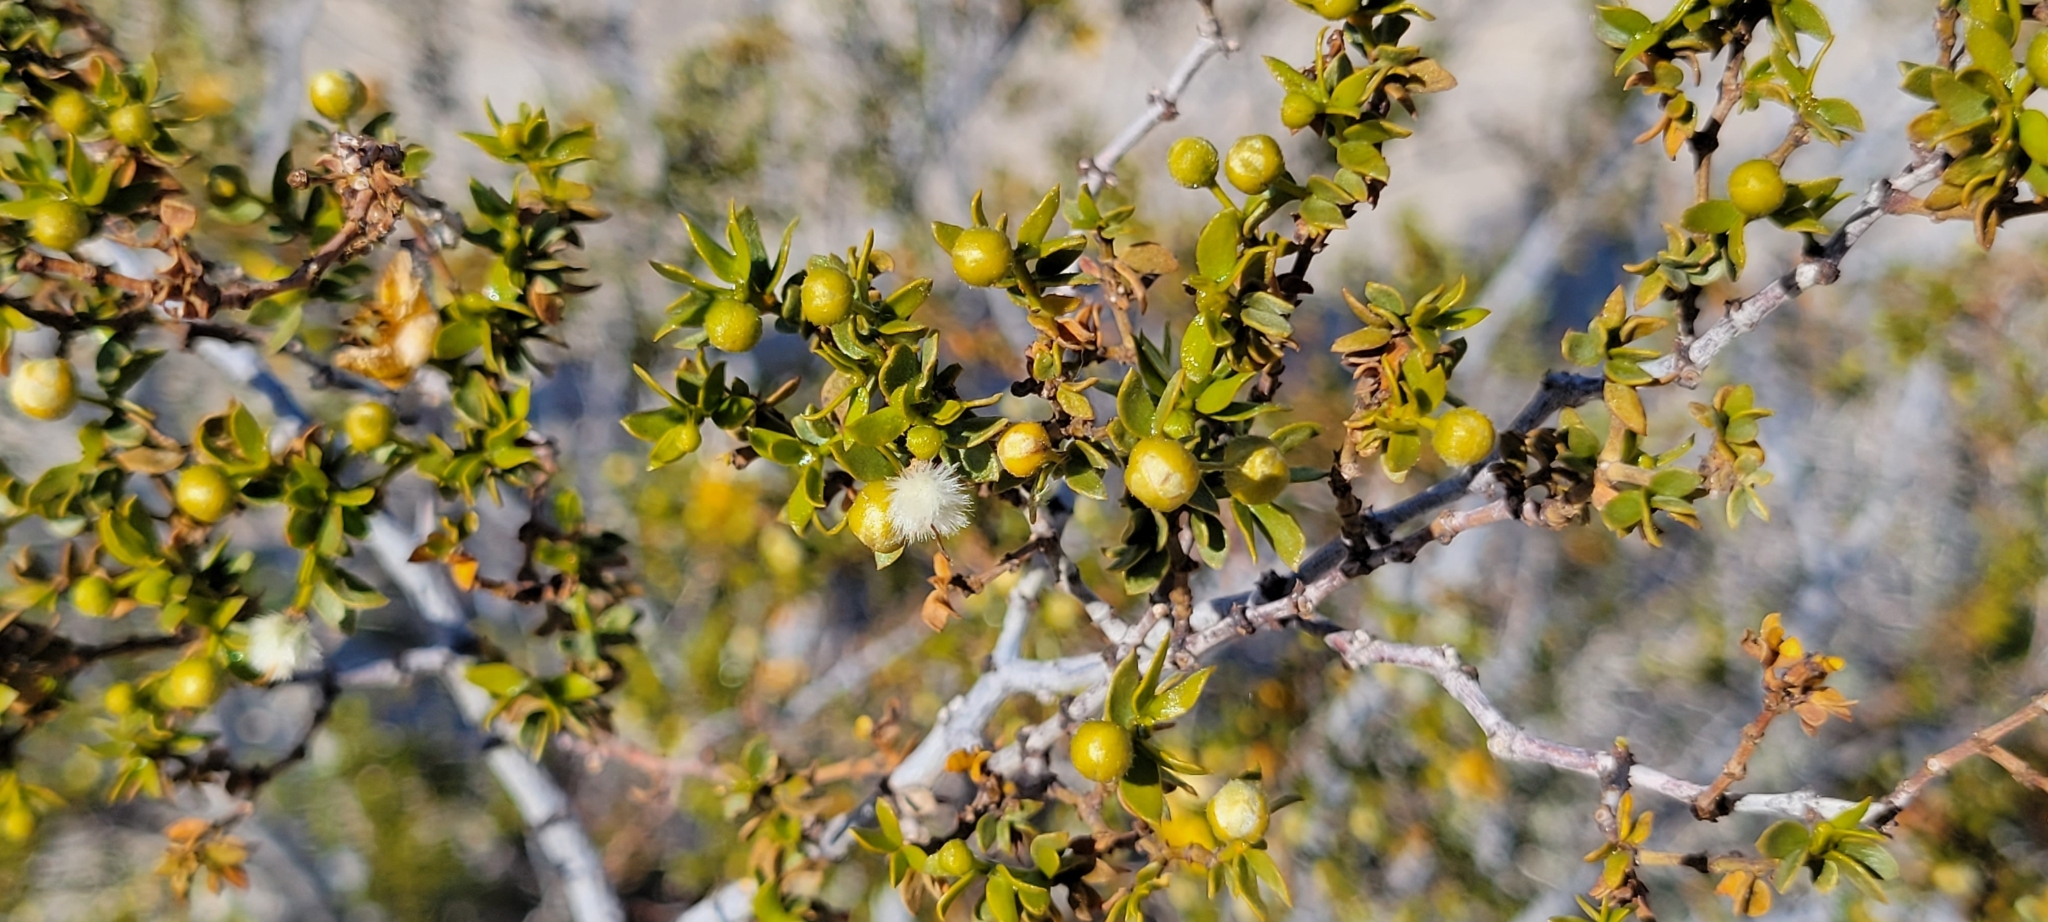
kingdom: Plantae
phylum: Tracheophyta
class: Magnoliopsida
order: Zygophyllales
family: Zygophyllaceae
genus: Larrea
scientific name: Larrea tridentata
